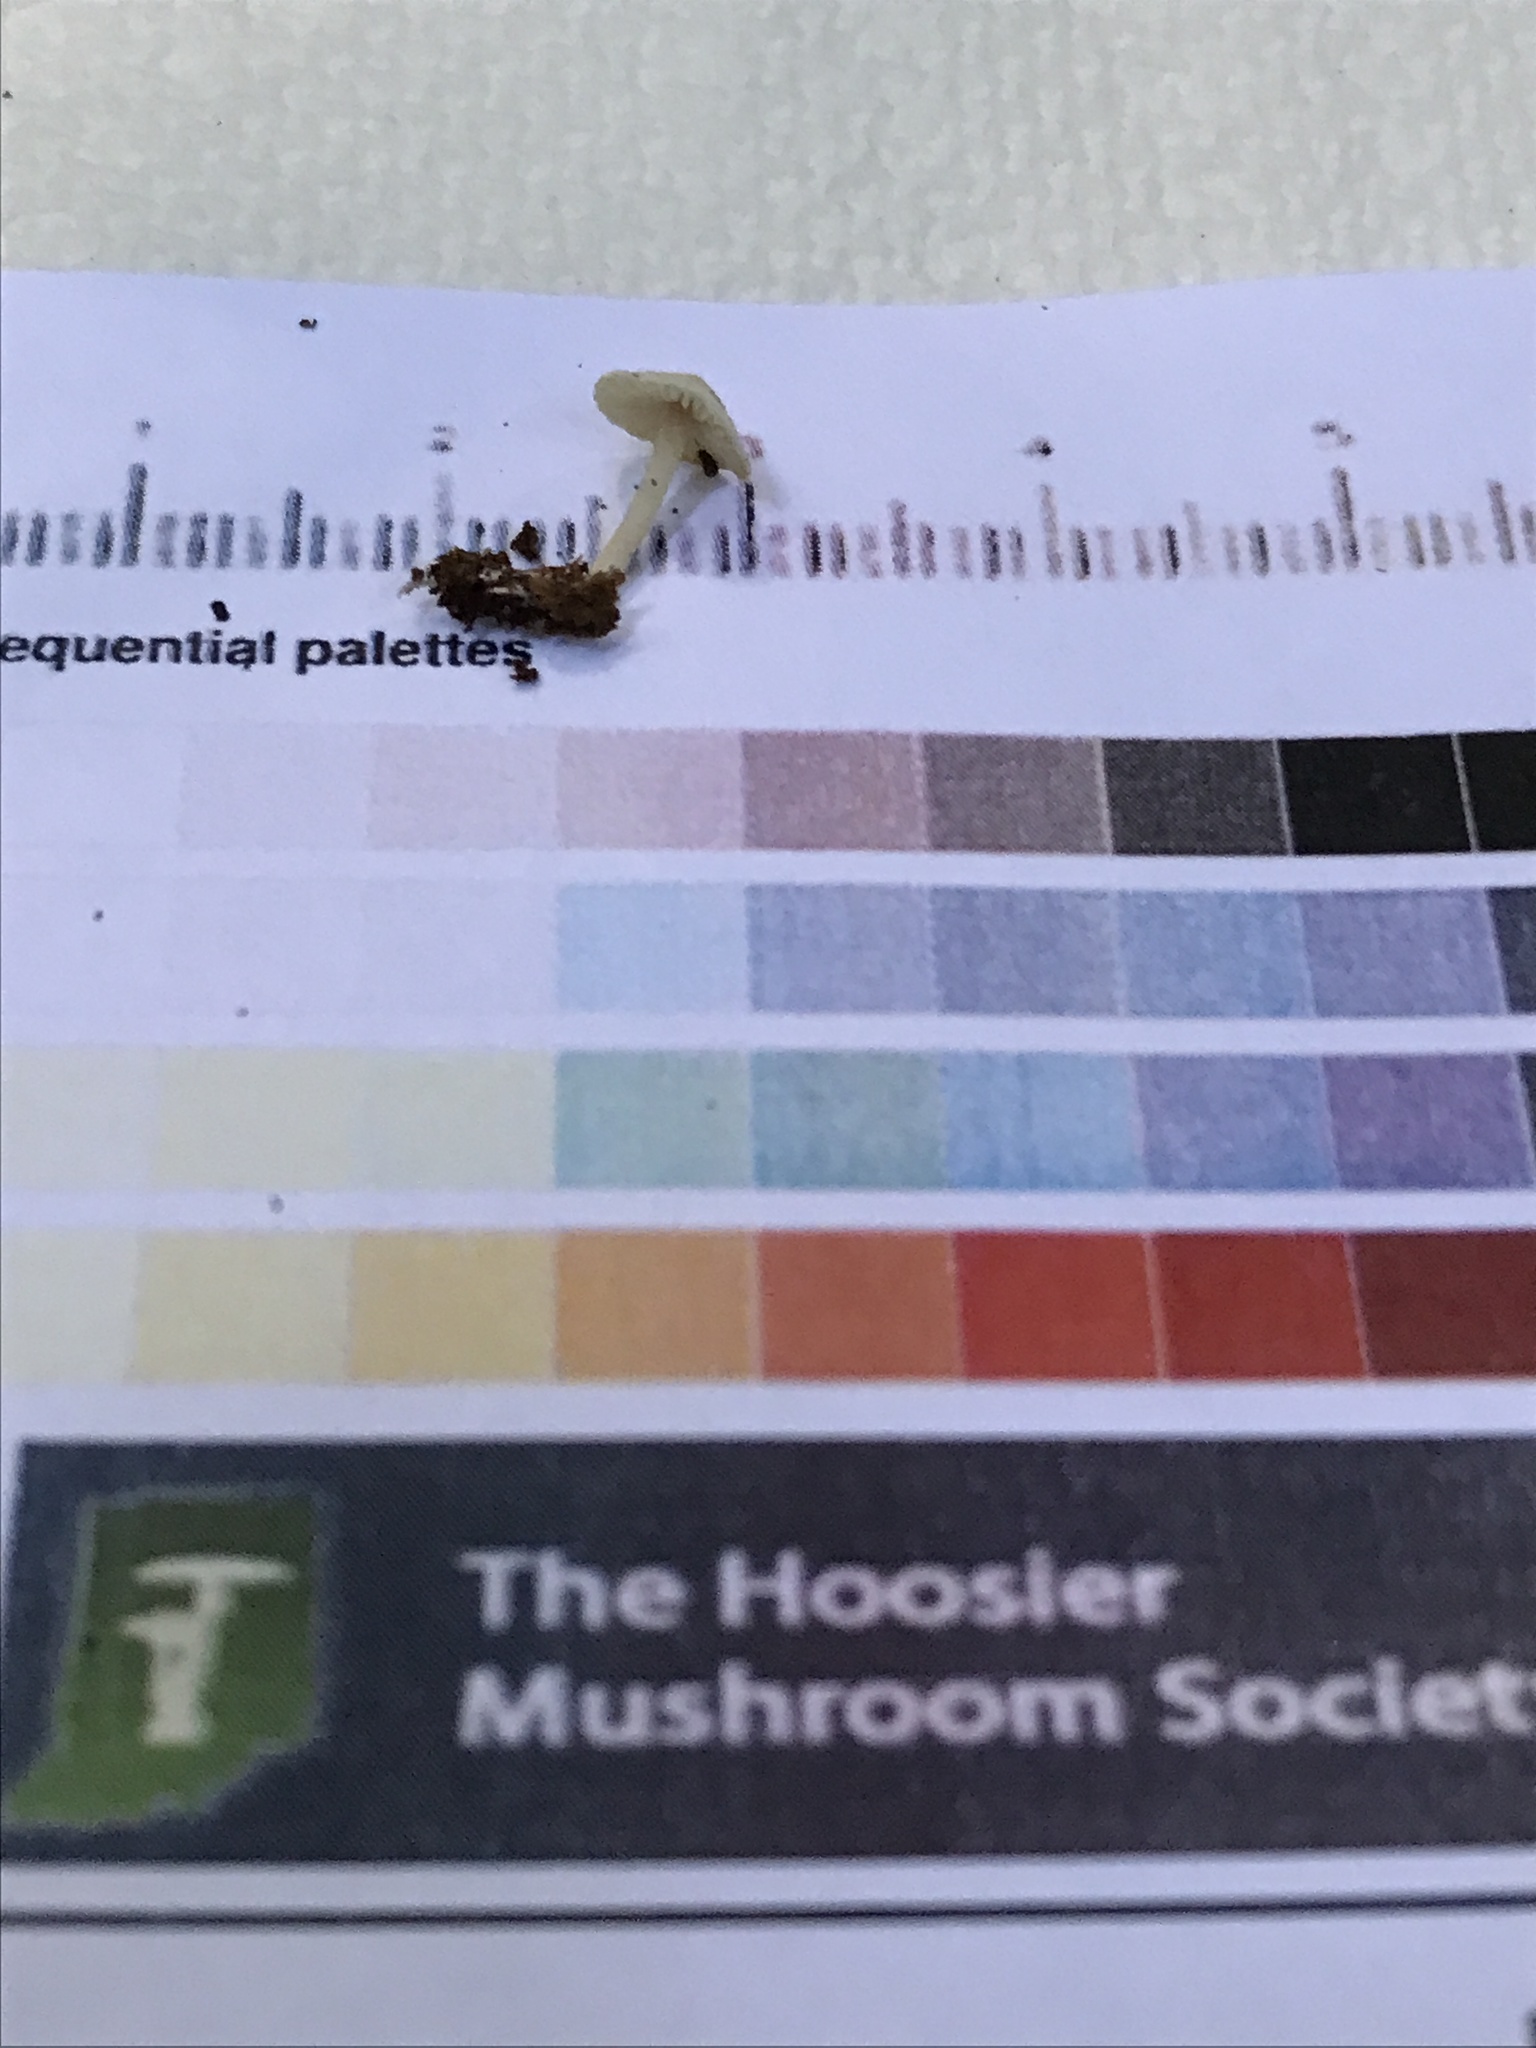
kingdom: Fungi
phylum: Basidiomycota
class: Agaricomycetes
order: Agaricales
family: Callistosporiaceae
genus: Callistosporium
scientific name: Callistosporium pseudofelleum
